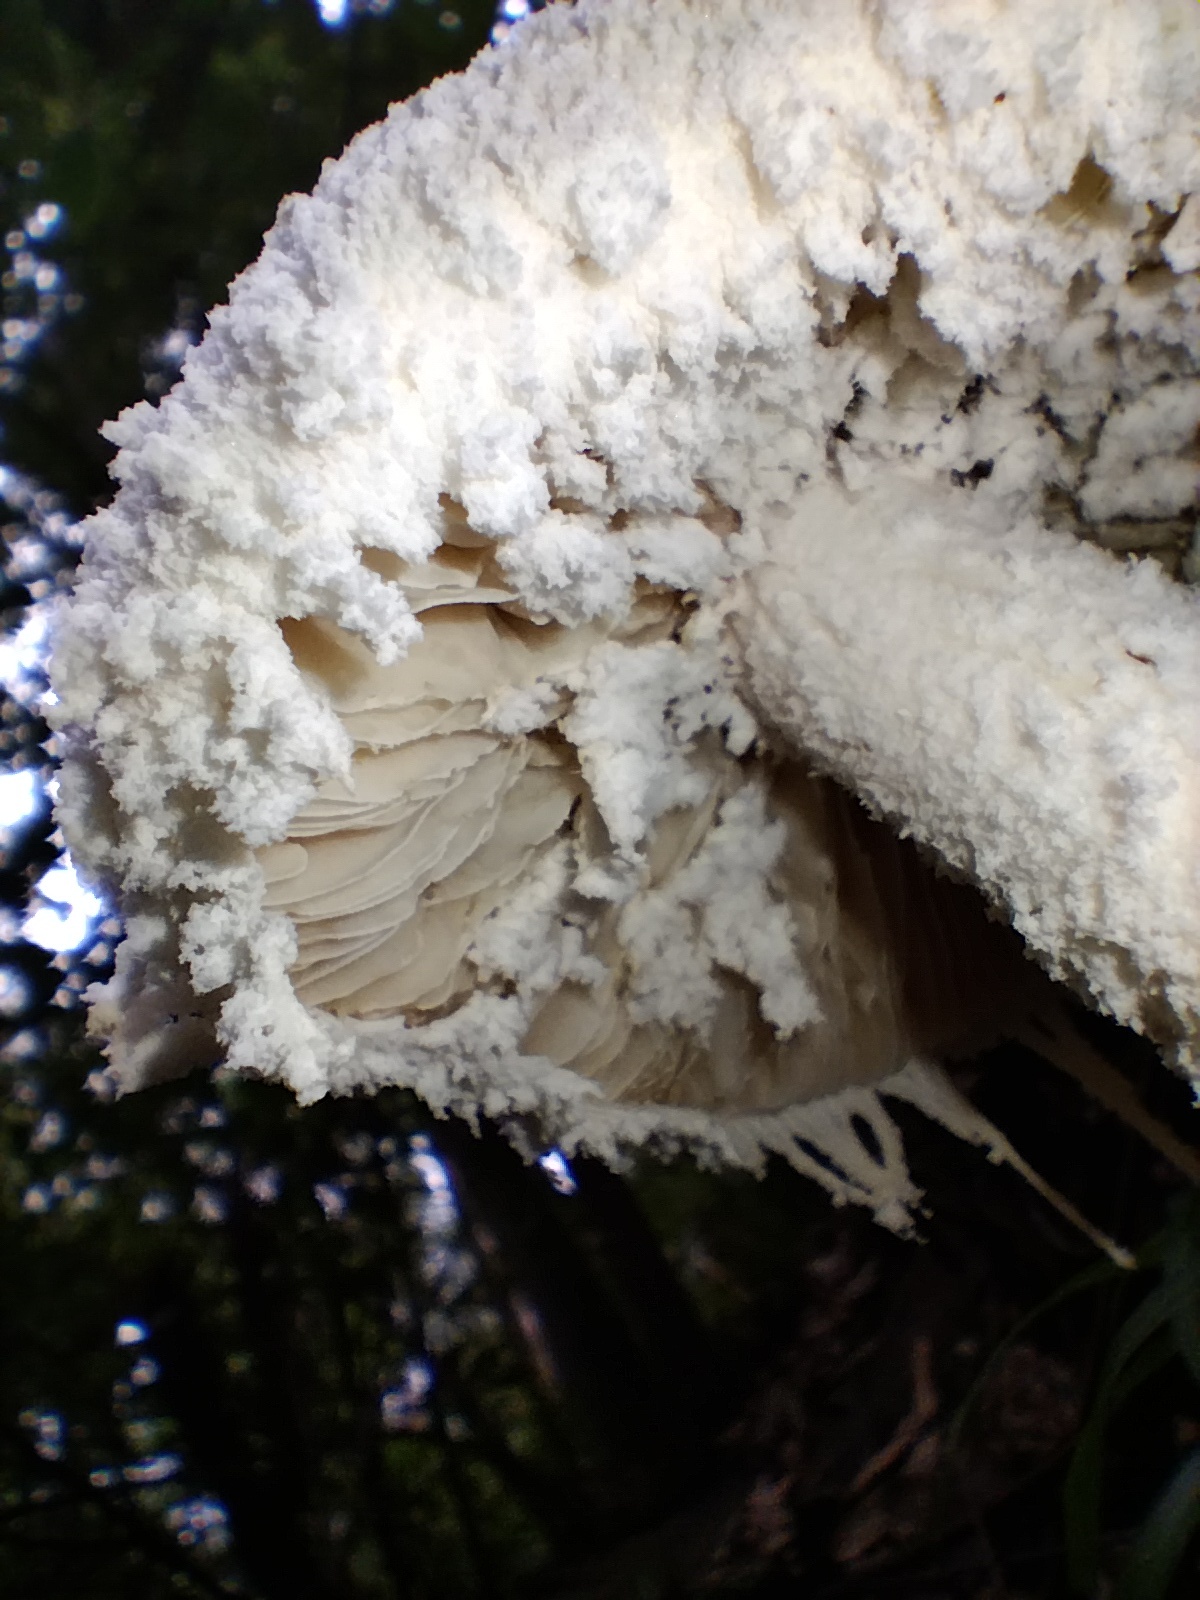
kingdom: Fungi
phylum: Basidiomycota
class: Agaricomycetes
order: Agaricales
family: Amanitaceae
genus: Amanita
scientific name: Amanita farinacea
